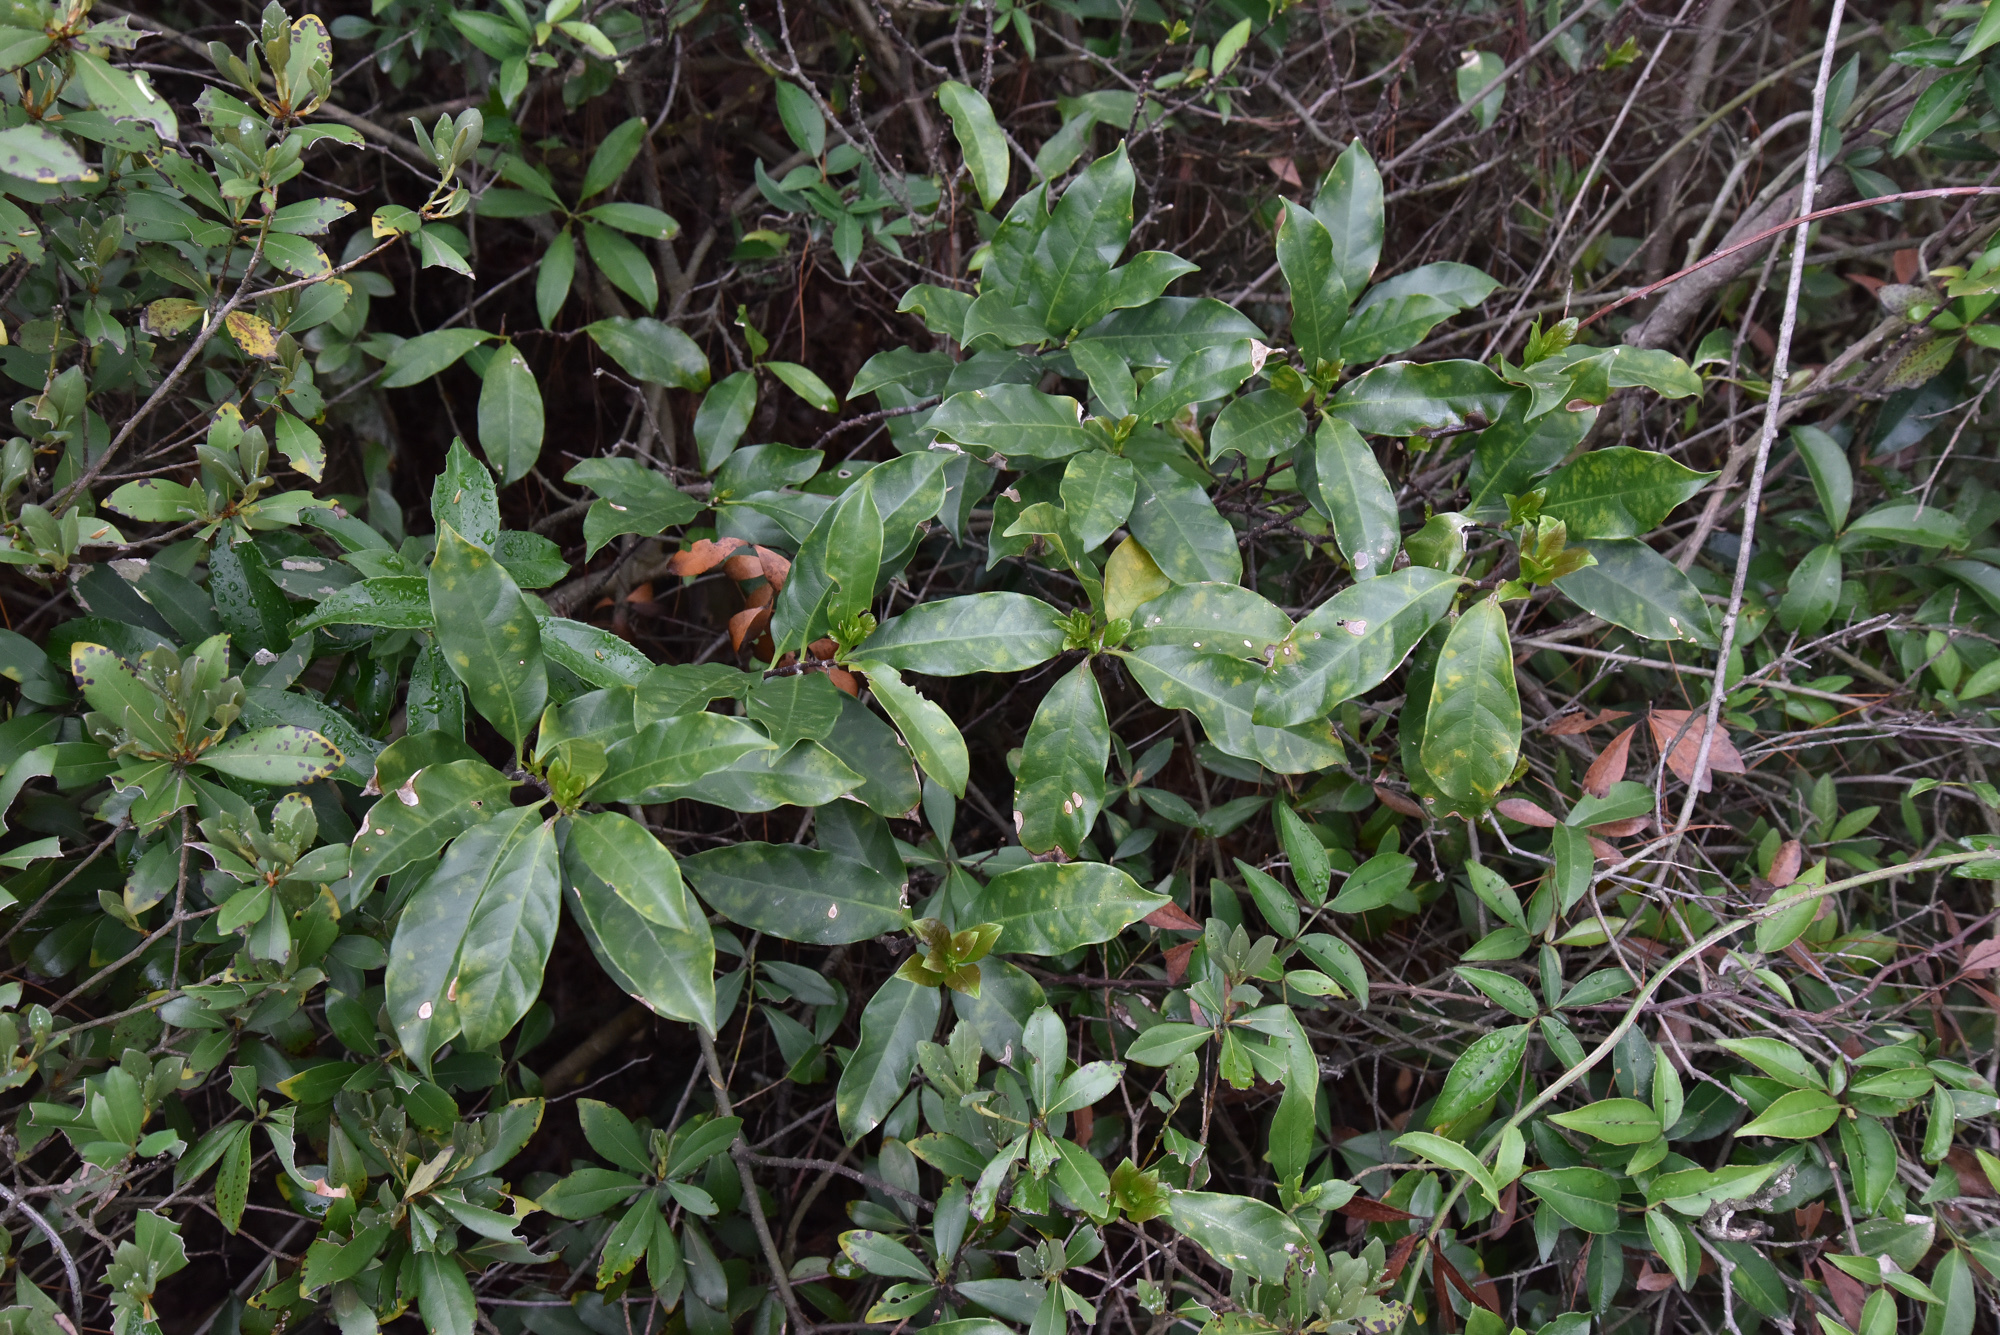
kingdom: Plantae
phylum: Tracheophyta
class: Magnoliopsida
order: Gentianales
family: Apocynaceae
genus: Strophanthus
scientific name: Strophanthus divaricatus
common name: Goat-horns
